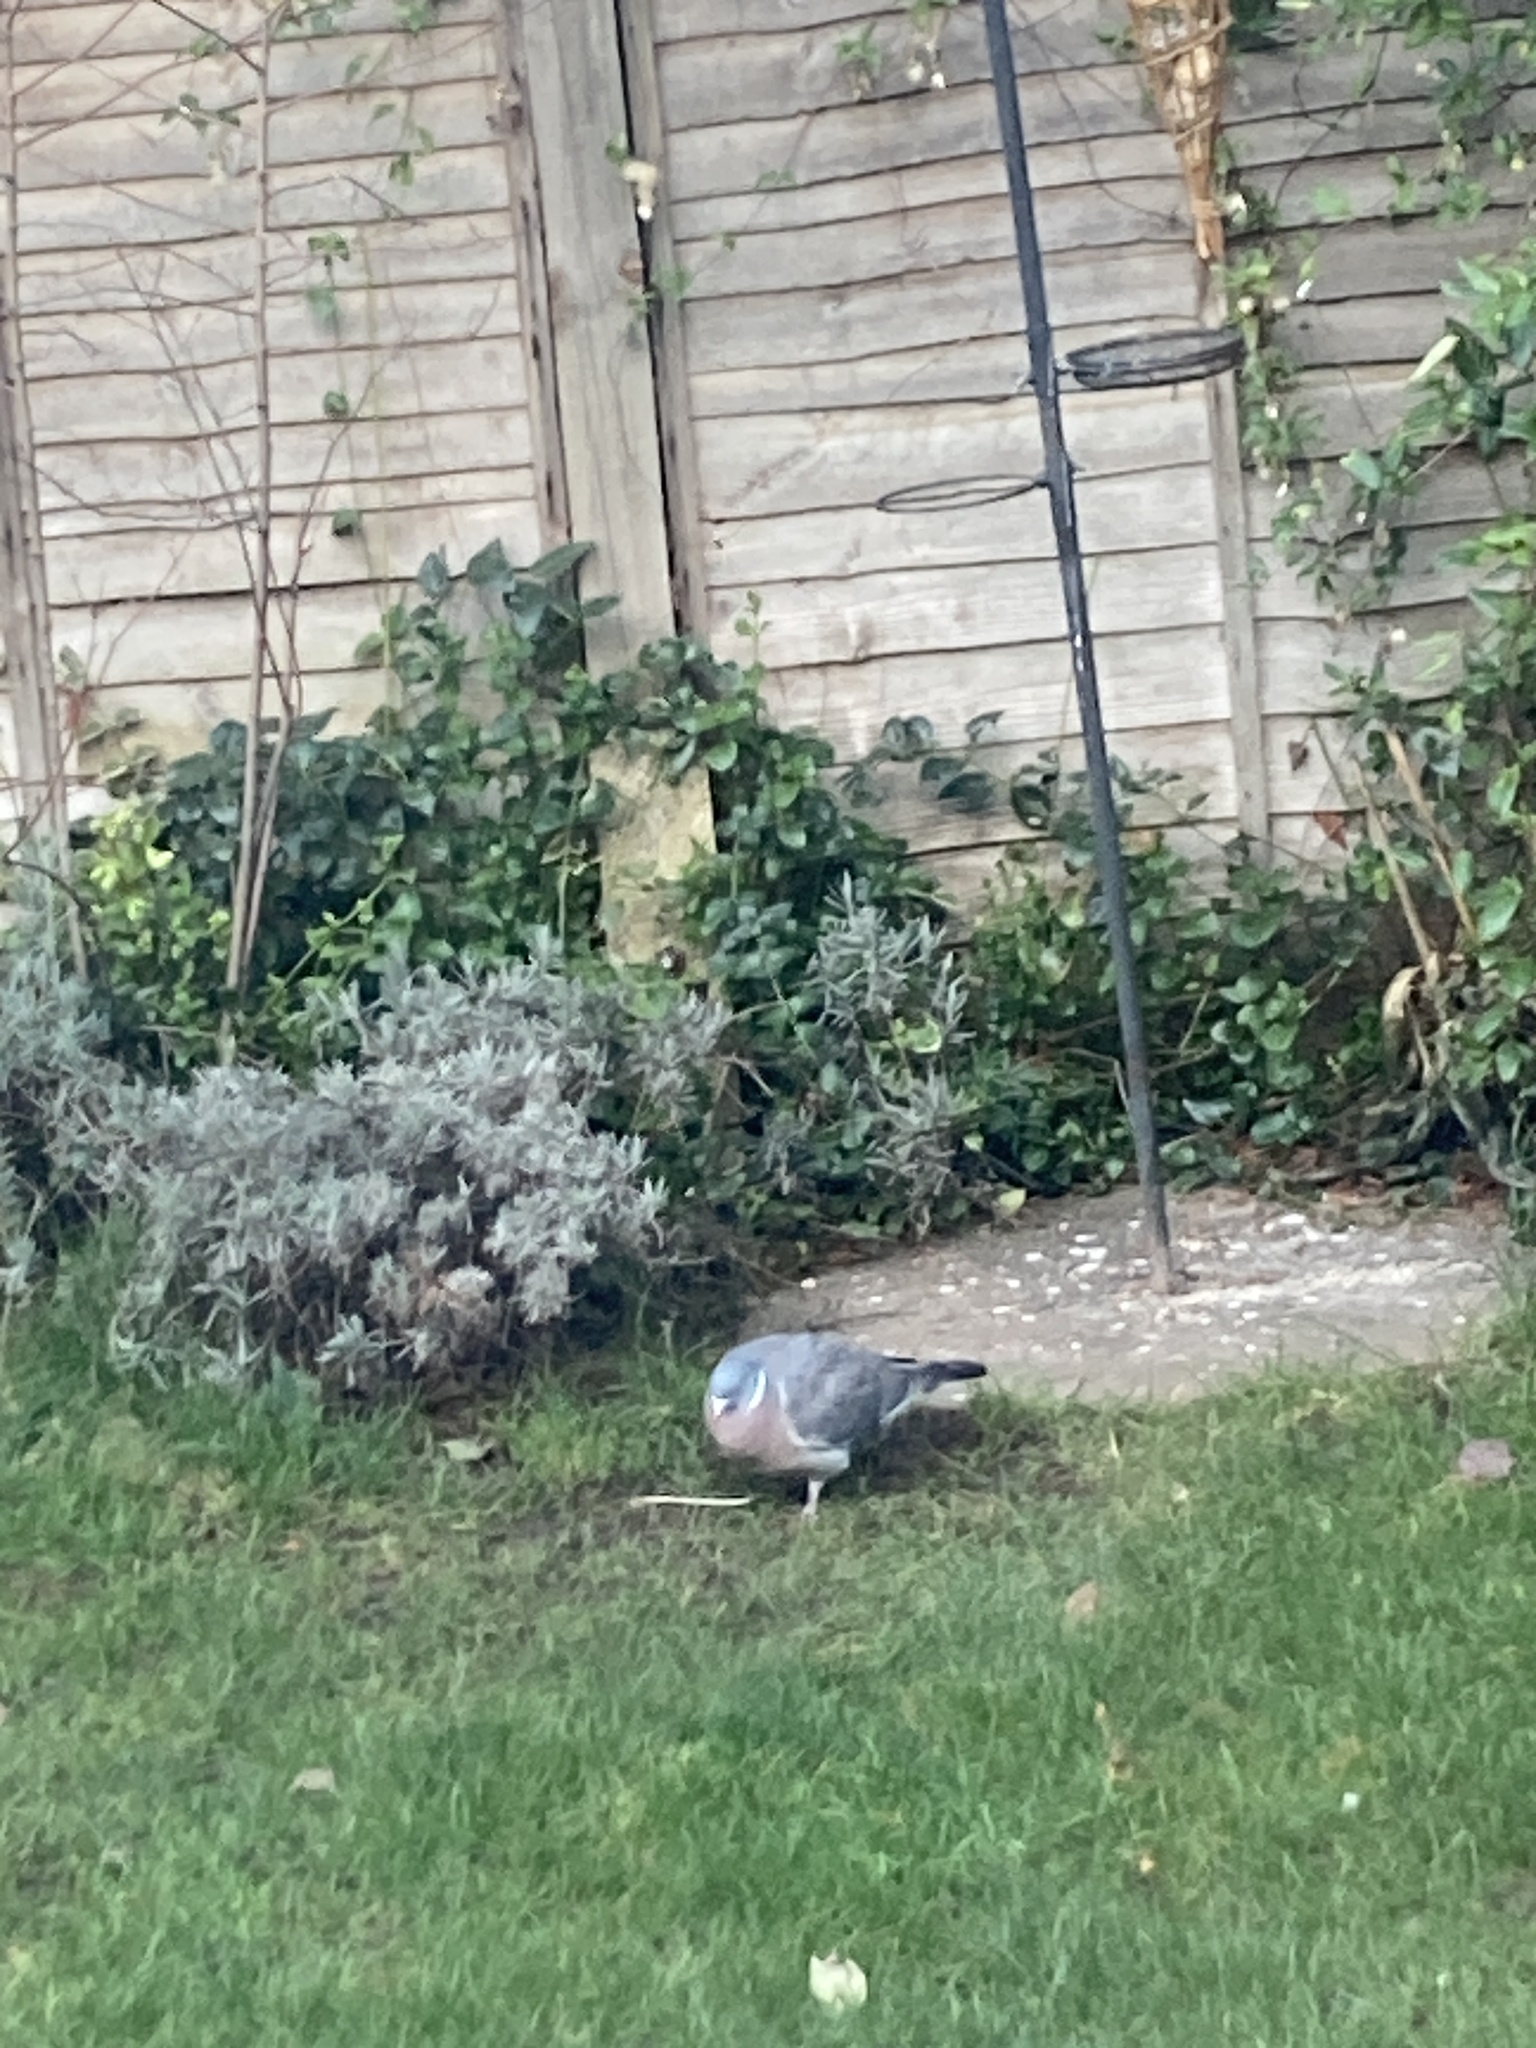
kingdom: Animalia
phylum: Chordata
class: Aves
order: Columbiformes
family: Columbidae
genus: Columba
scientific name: Columba palumbus
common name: Common wood pigeon
